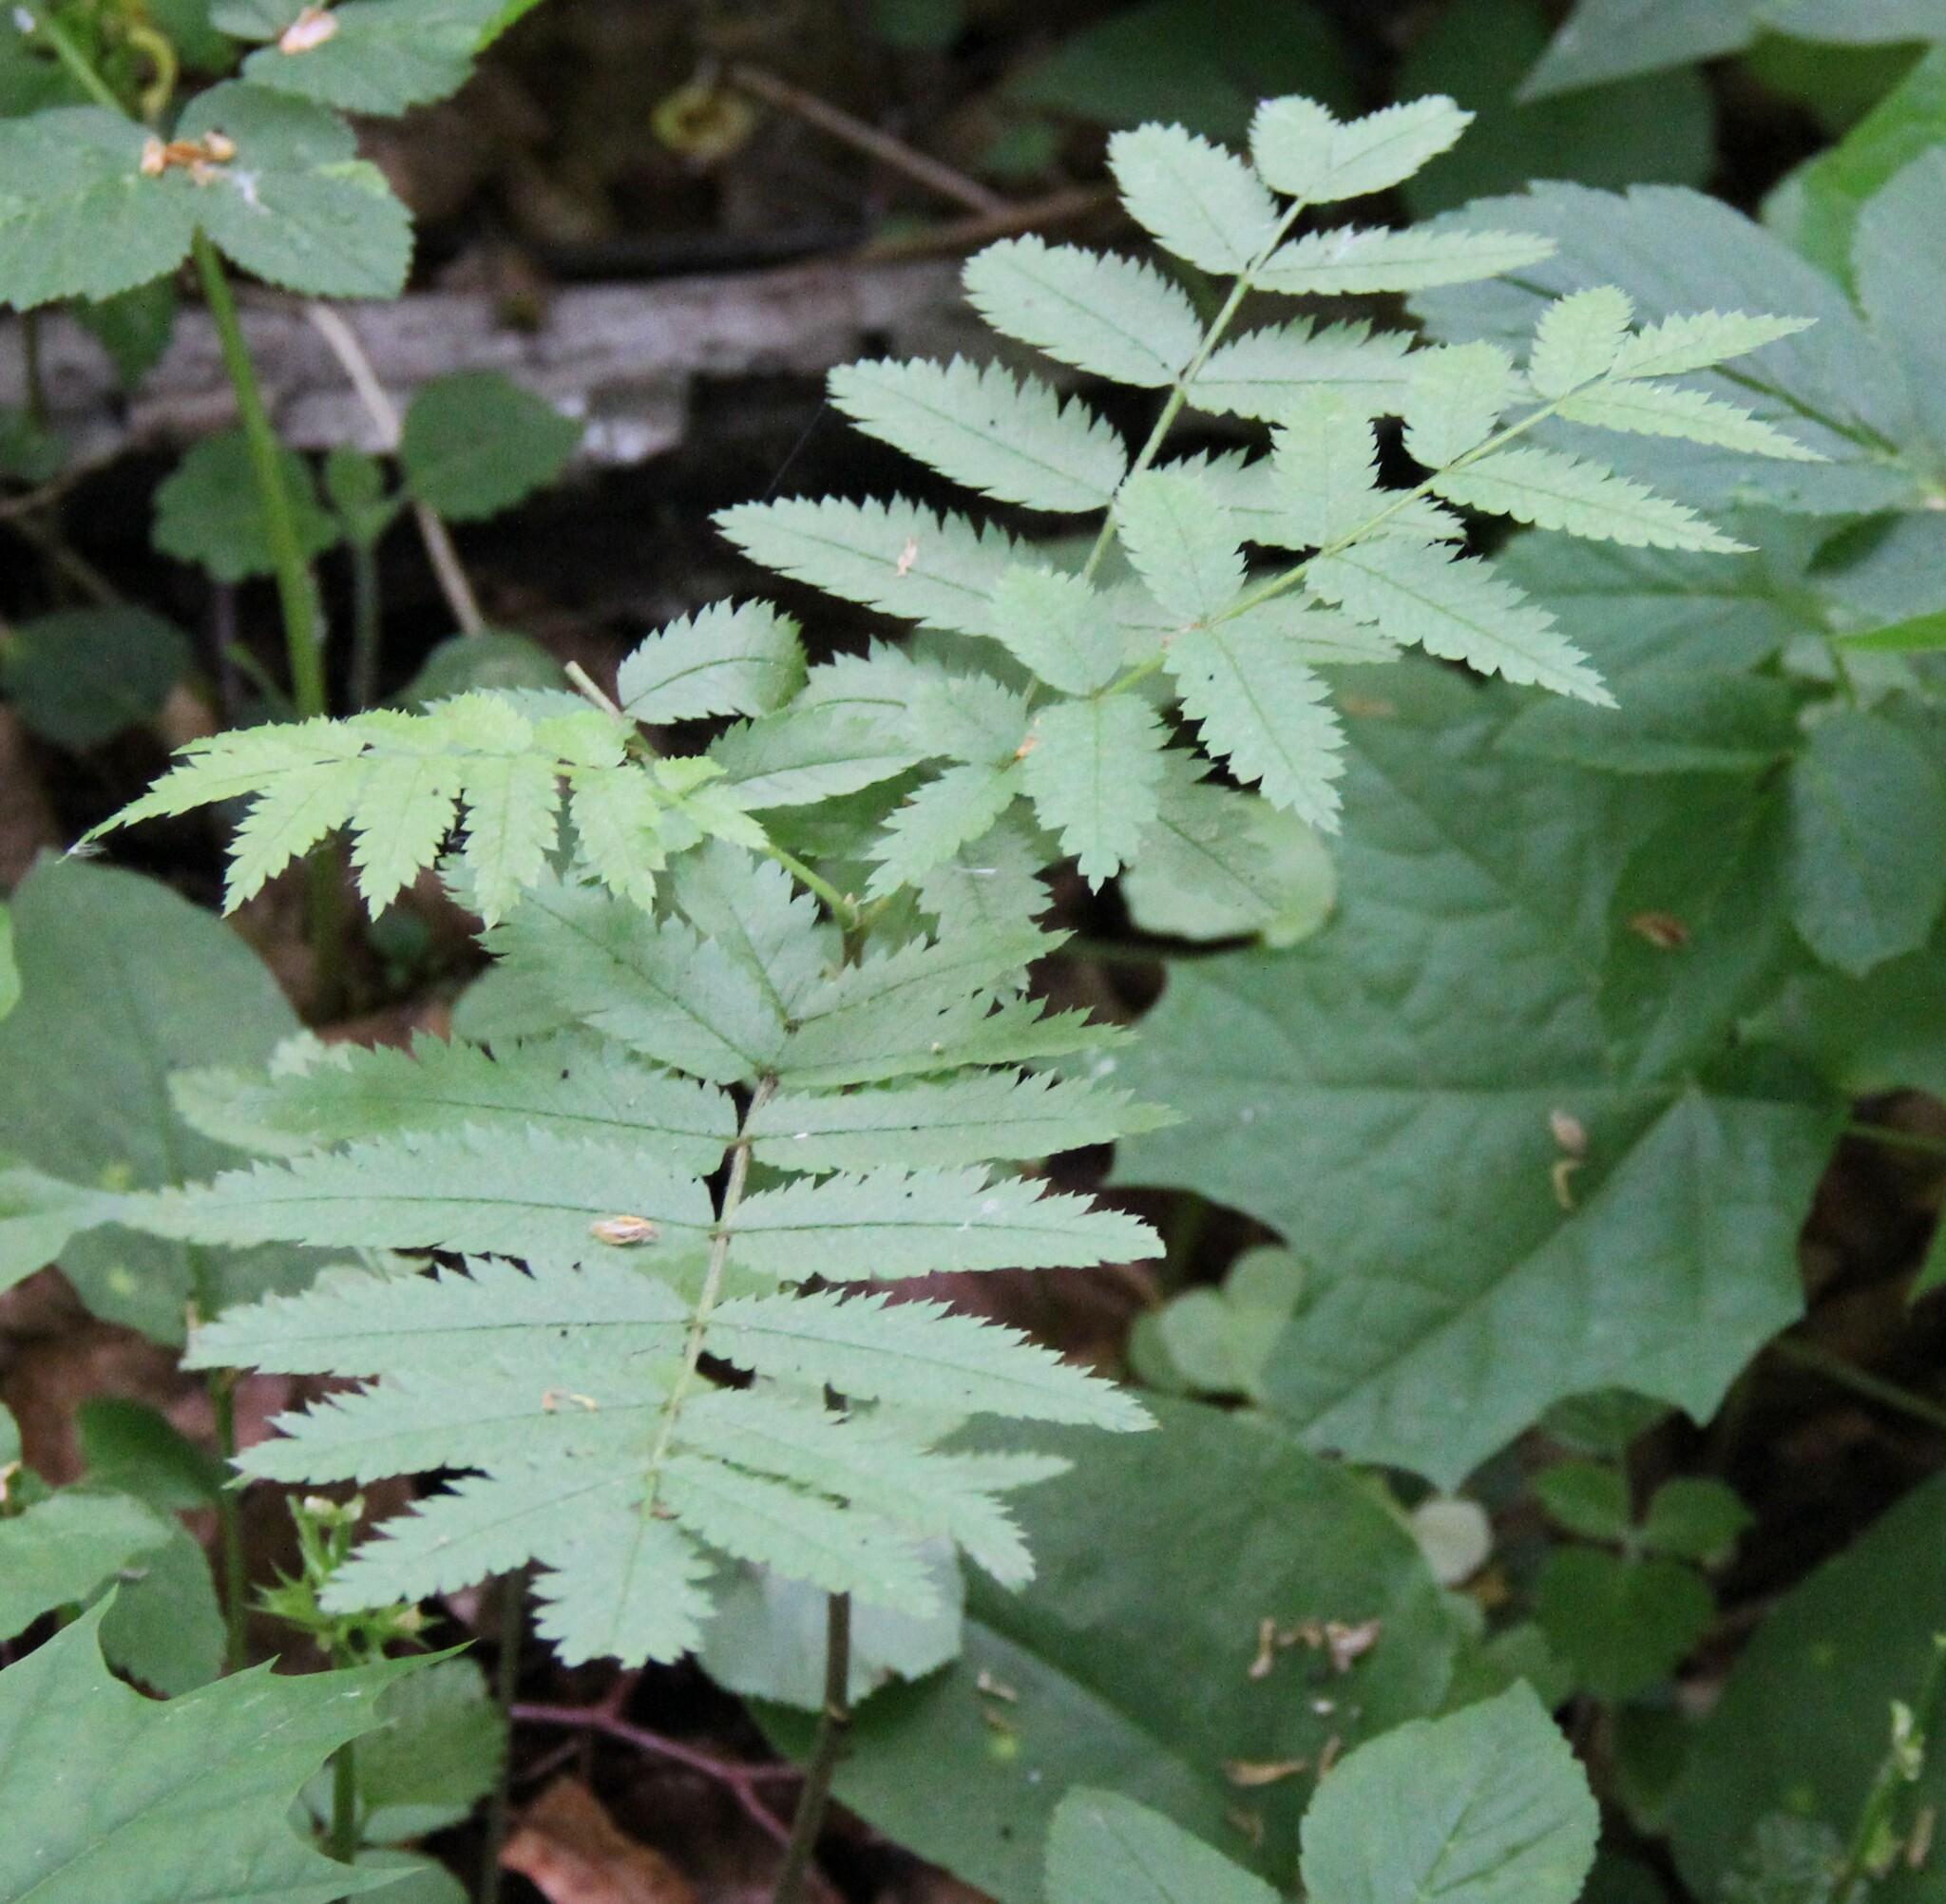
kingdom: Plantae
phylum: Tracheophyta
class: Magnoliopsida
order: Rosales
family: Rosaceae
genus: Sorbus
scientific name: Sorbus aucuparia
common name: Rowan
